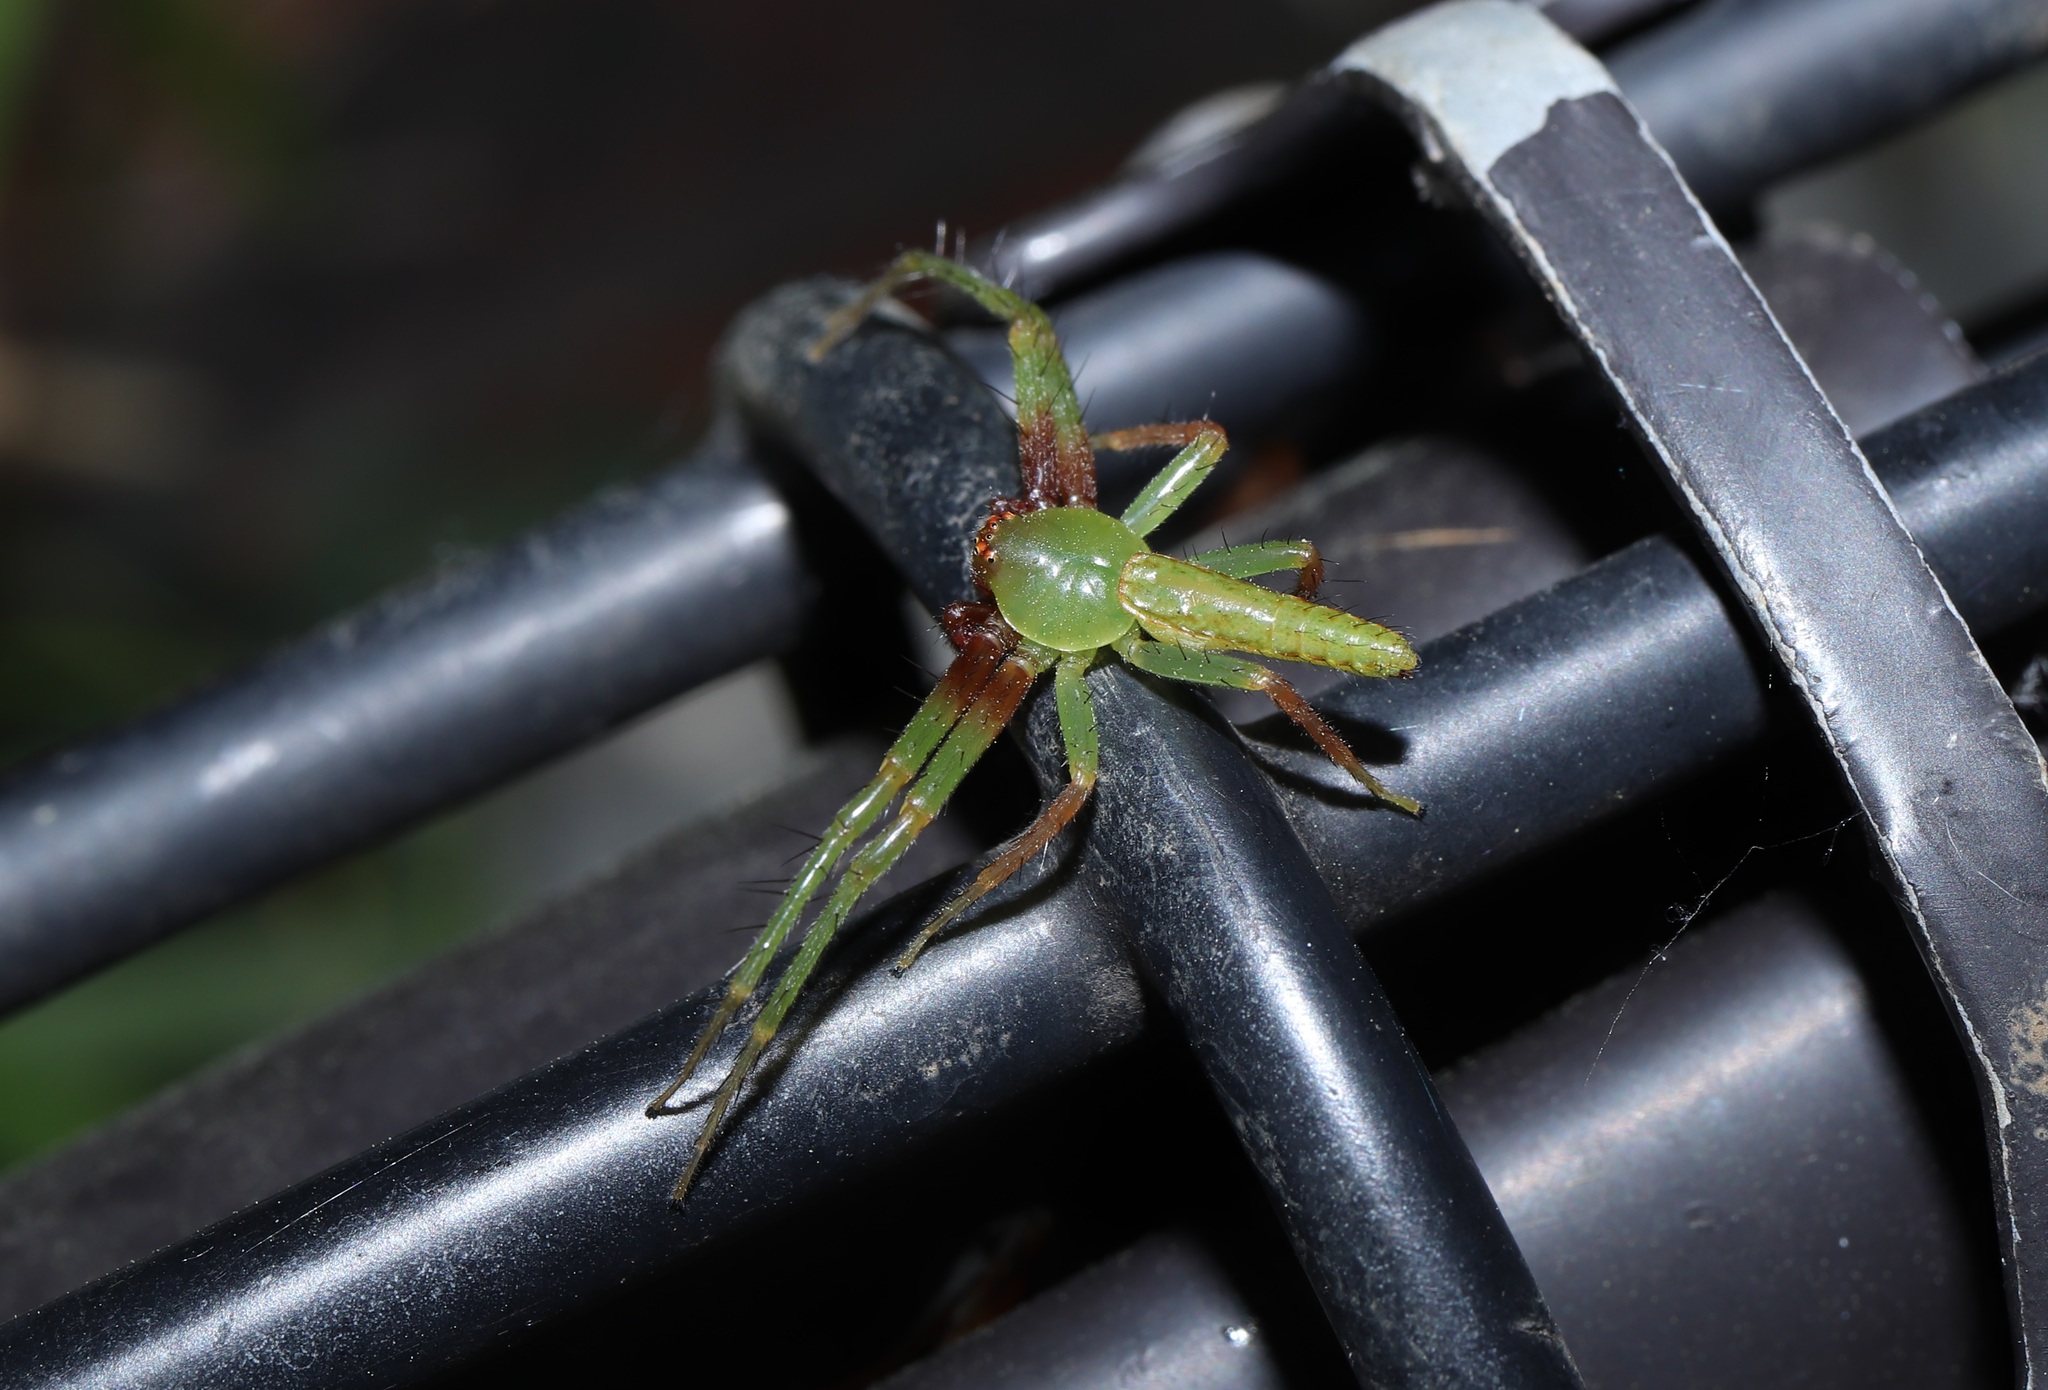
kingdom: Animalia
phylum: Arthropoda
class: Arachnida
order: Araneae
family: Thomisidae
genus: Oxytate
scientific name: Oxytate striatipes
